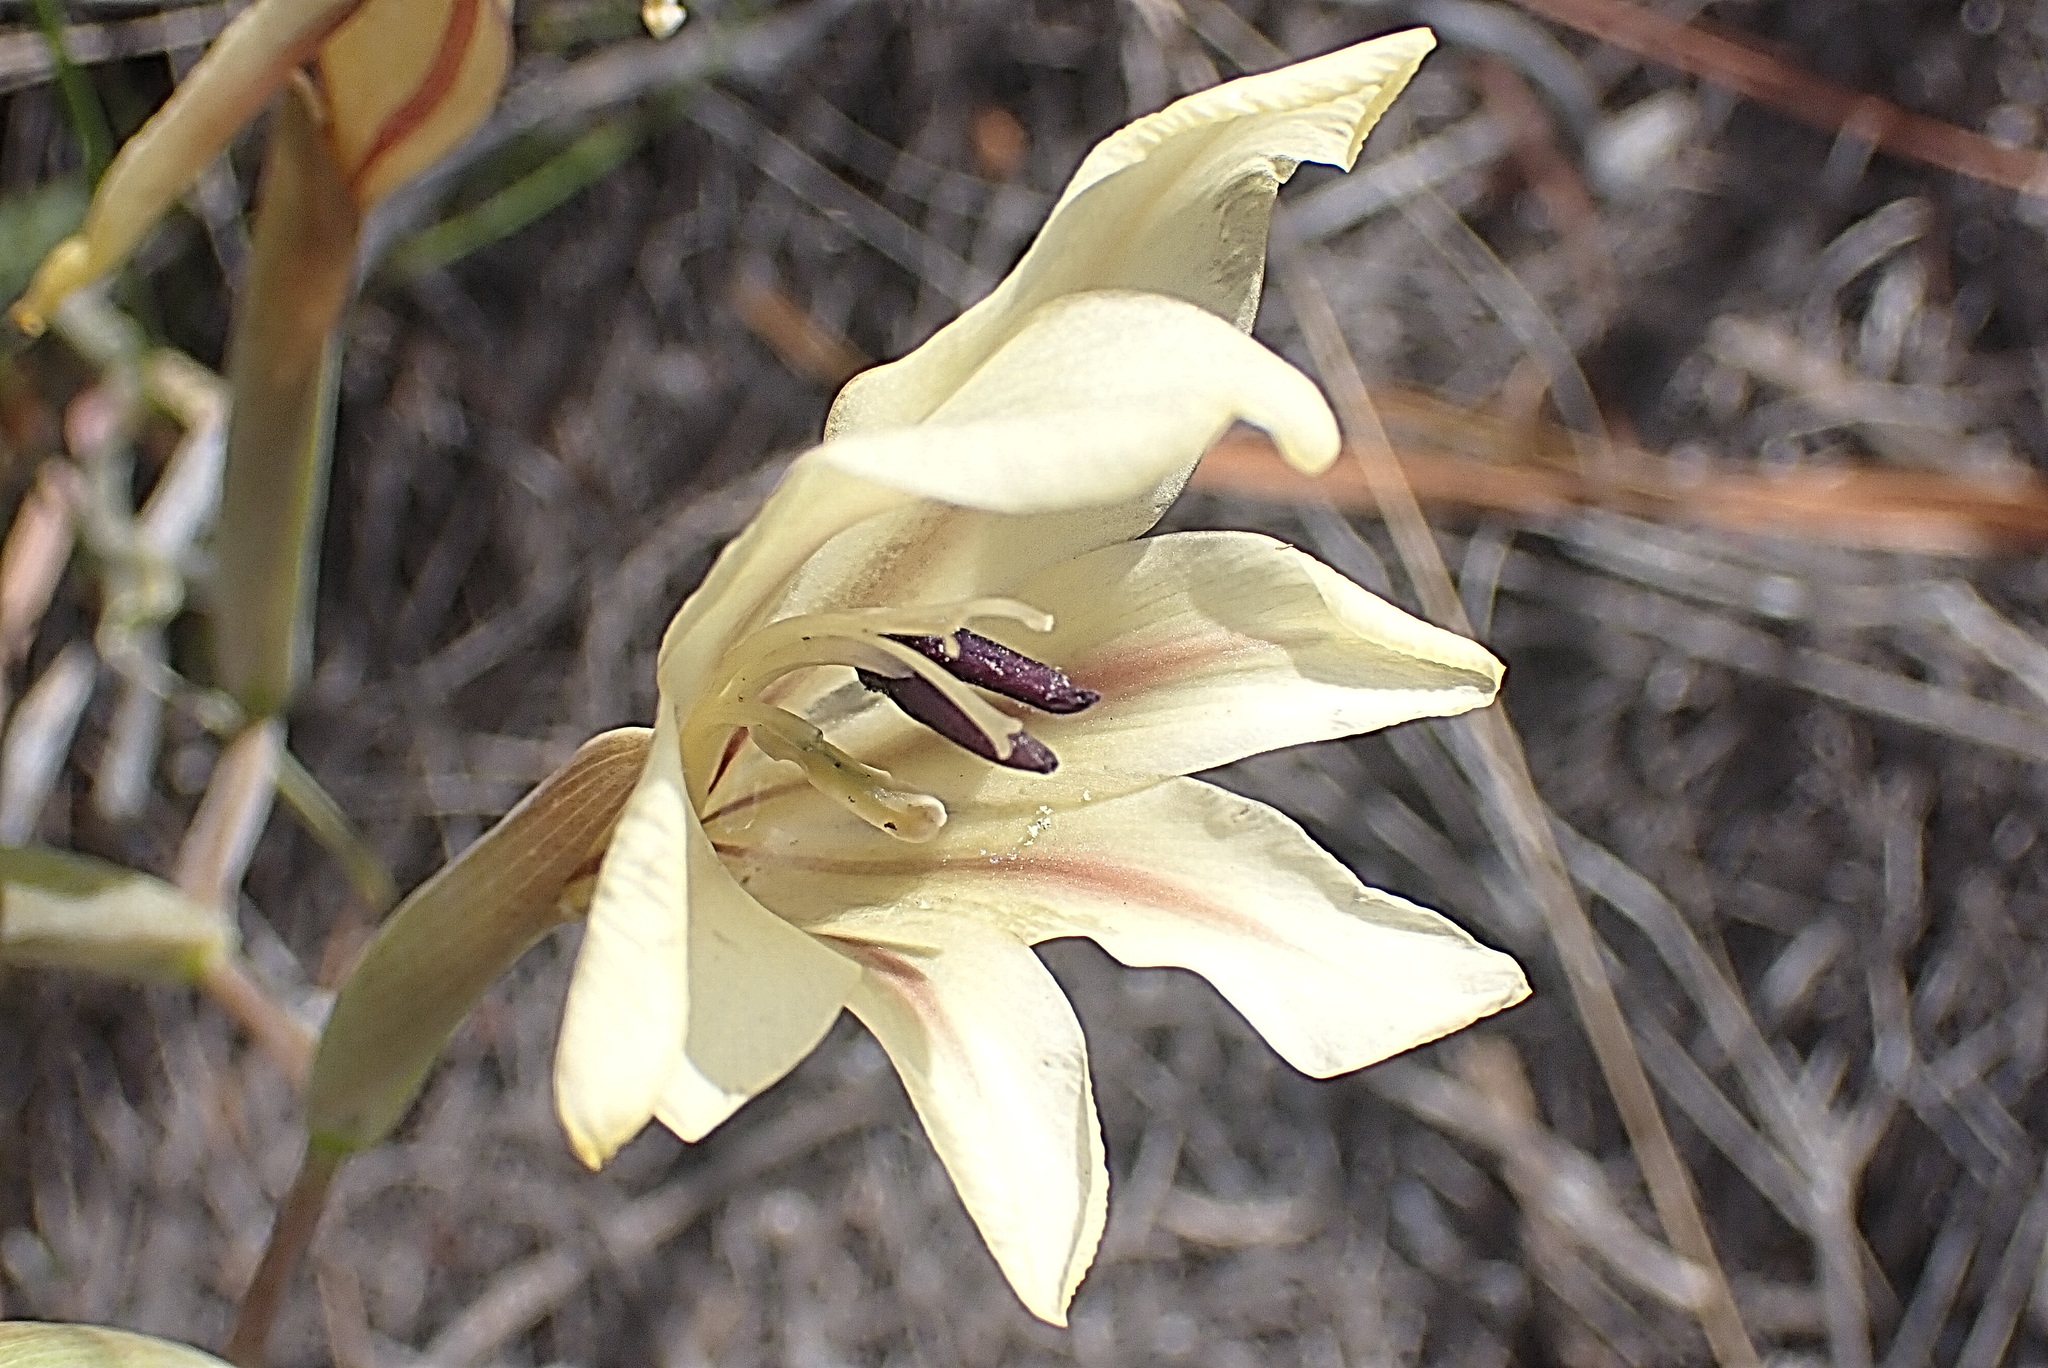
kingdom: Plantae
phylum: Tracheophyta
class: Liliopsida
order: Asparagales
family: Iridaceae
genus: Gladiolus
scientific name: Gladiolus floribundus
